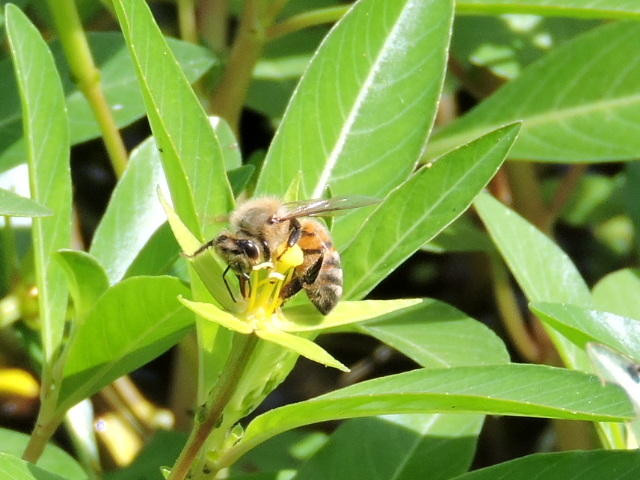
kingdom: Animalia
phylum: Arthropoda
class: Insecta
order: Hymenoptera
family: Apidae
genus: Apis
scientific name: Apis mellifera
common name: Honey bee
